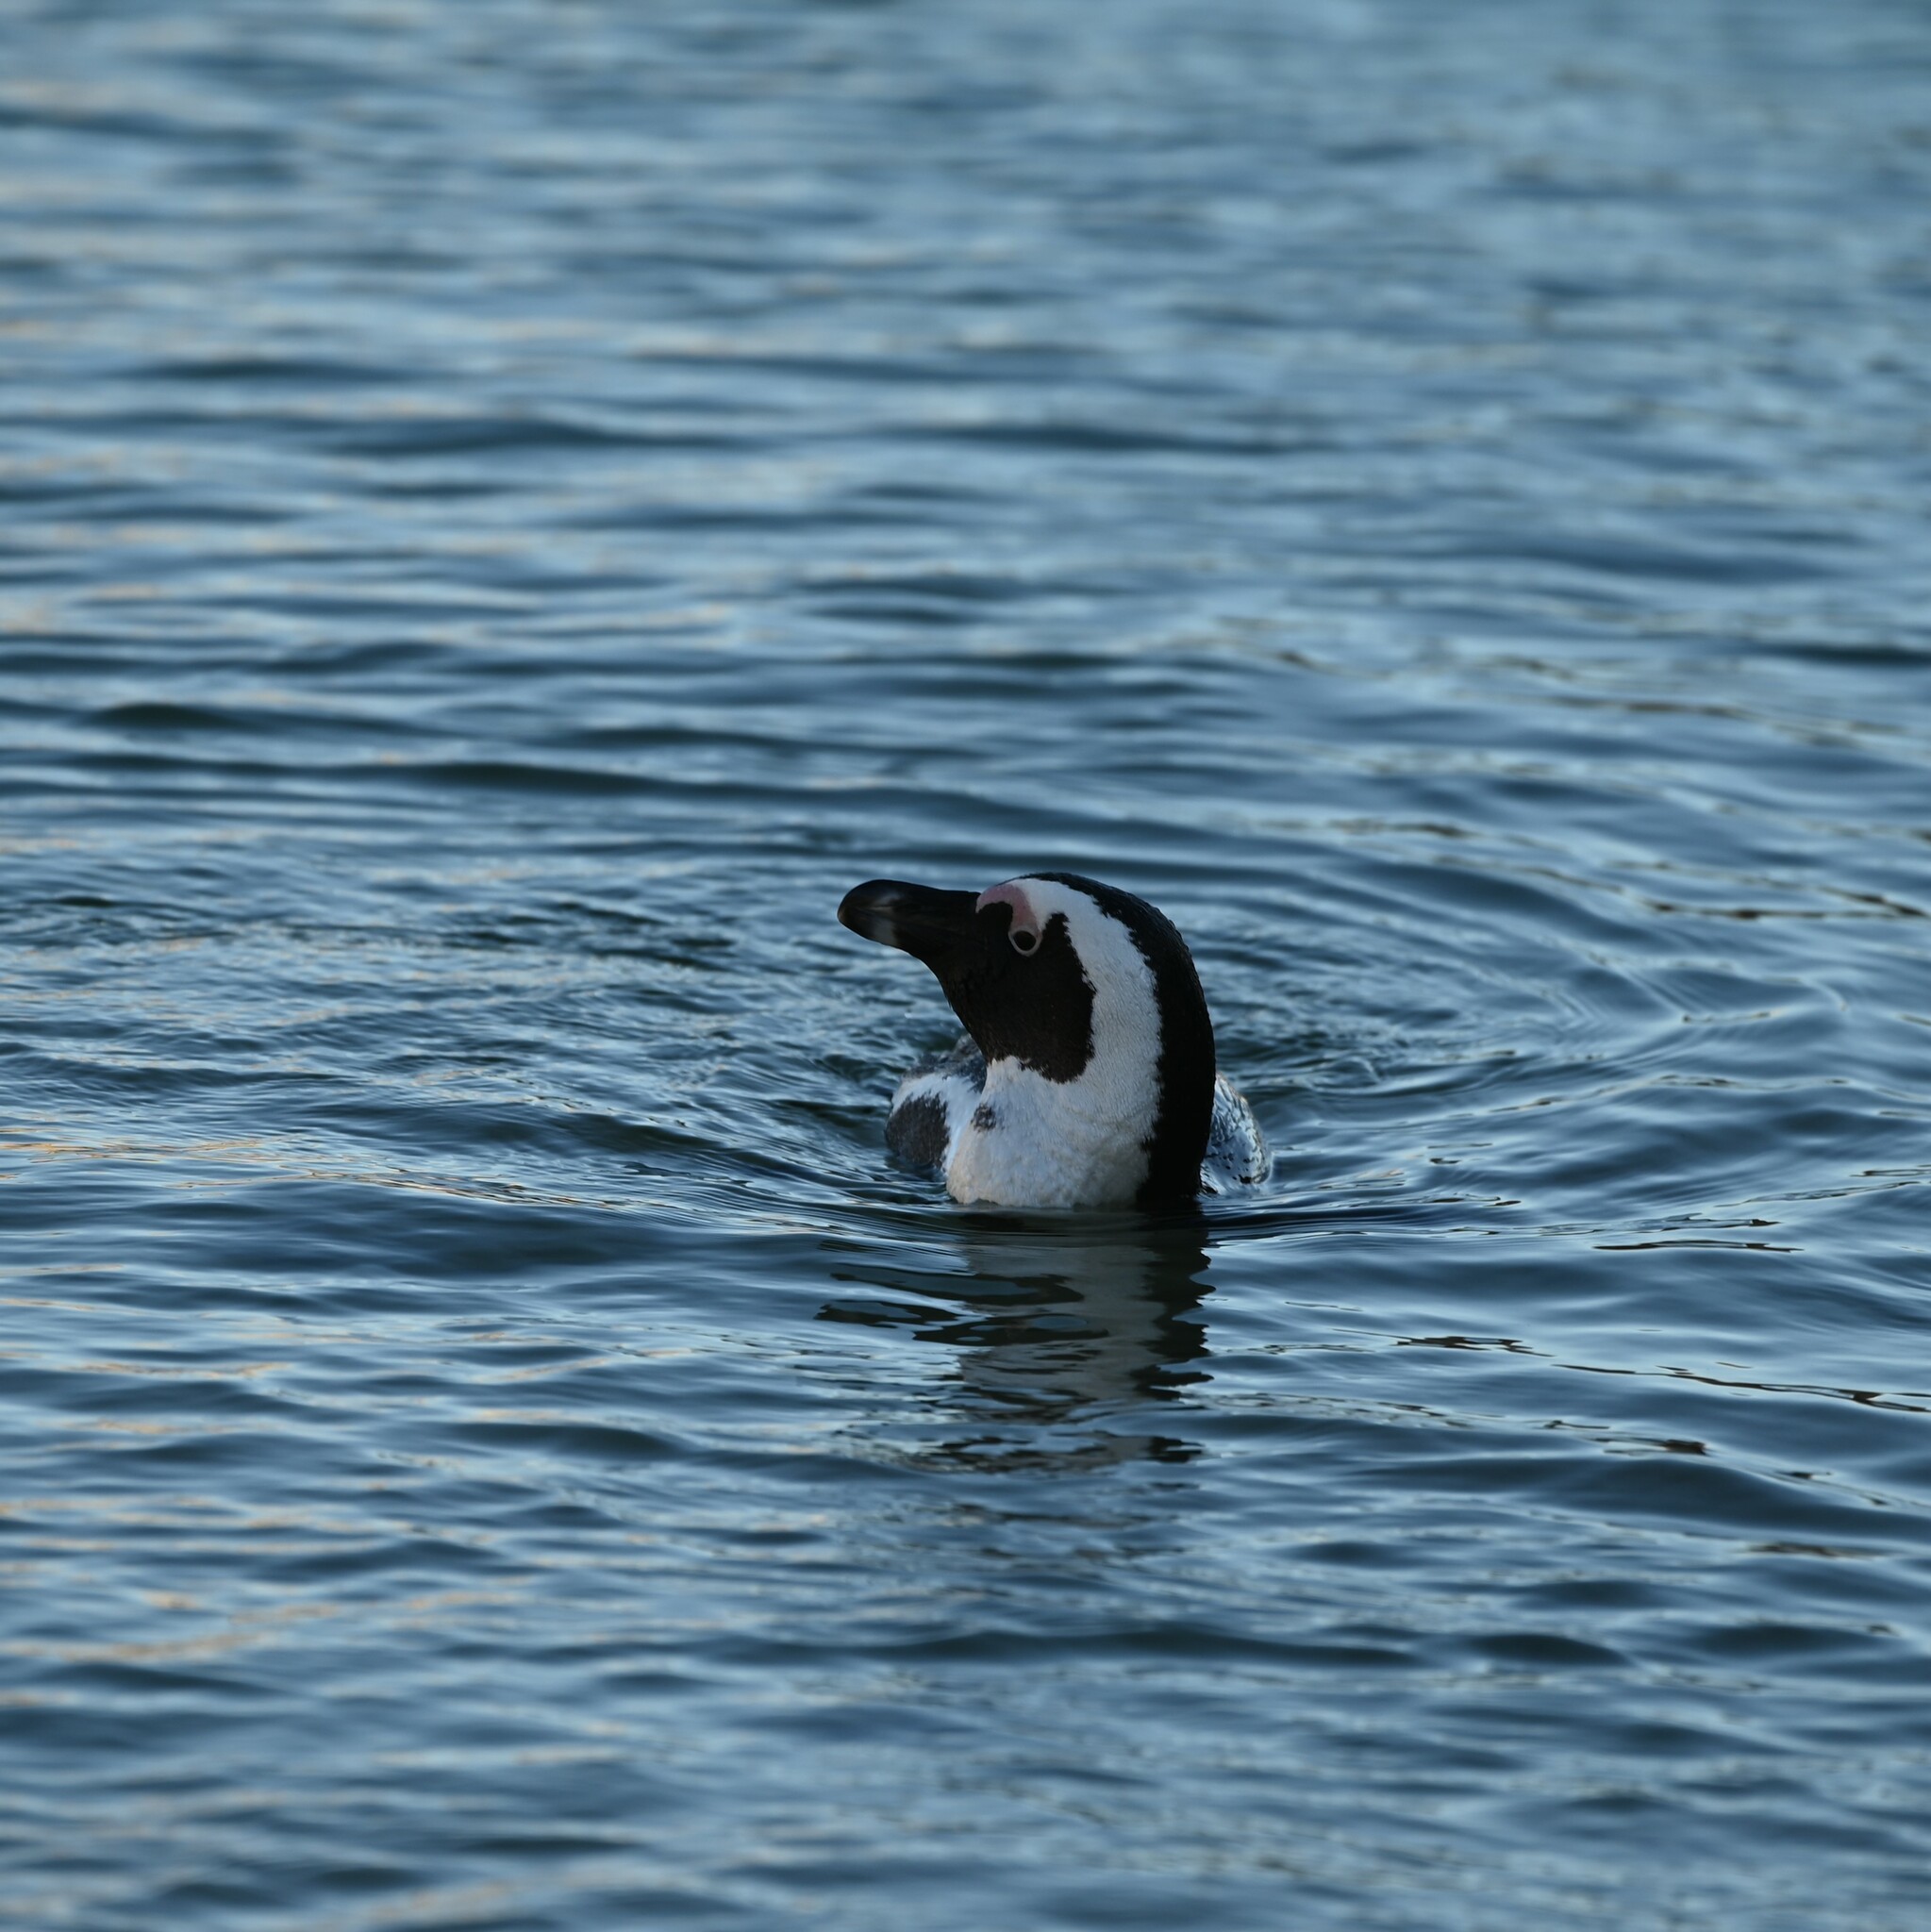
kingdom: Animalia
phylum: Chordata
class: Aves
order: Sphenisciformes
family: Spheniscidae
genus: Spheniscus
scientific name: Spheniscus demersus
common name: African penguin
